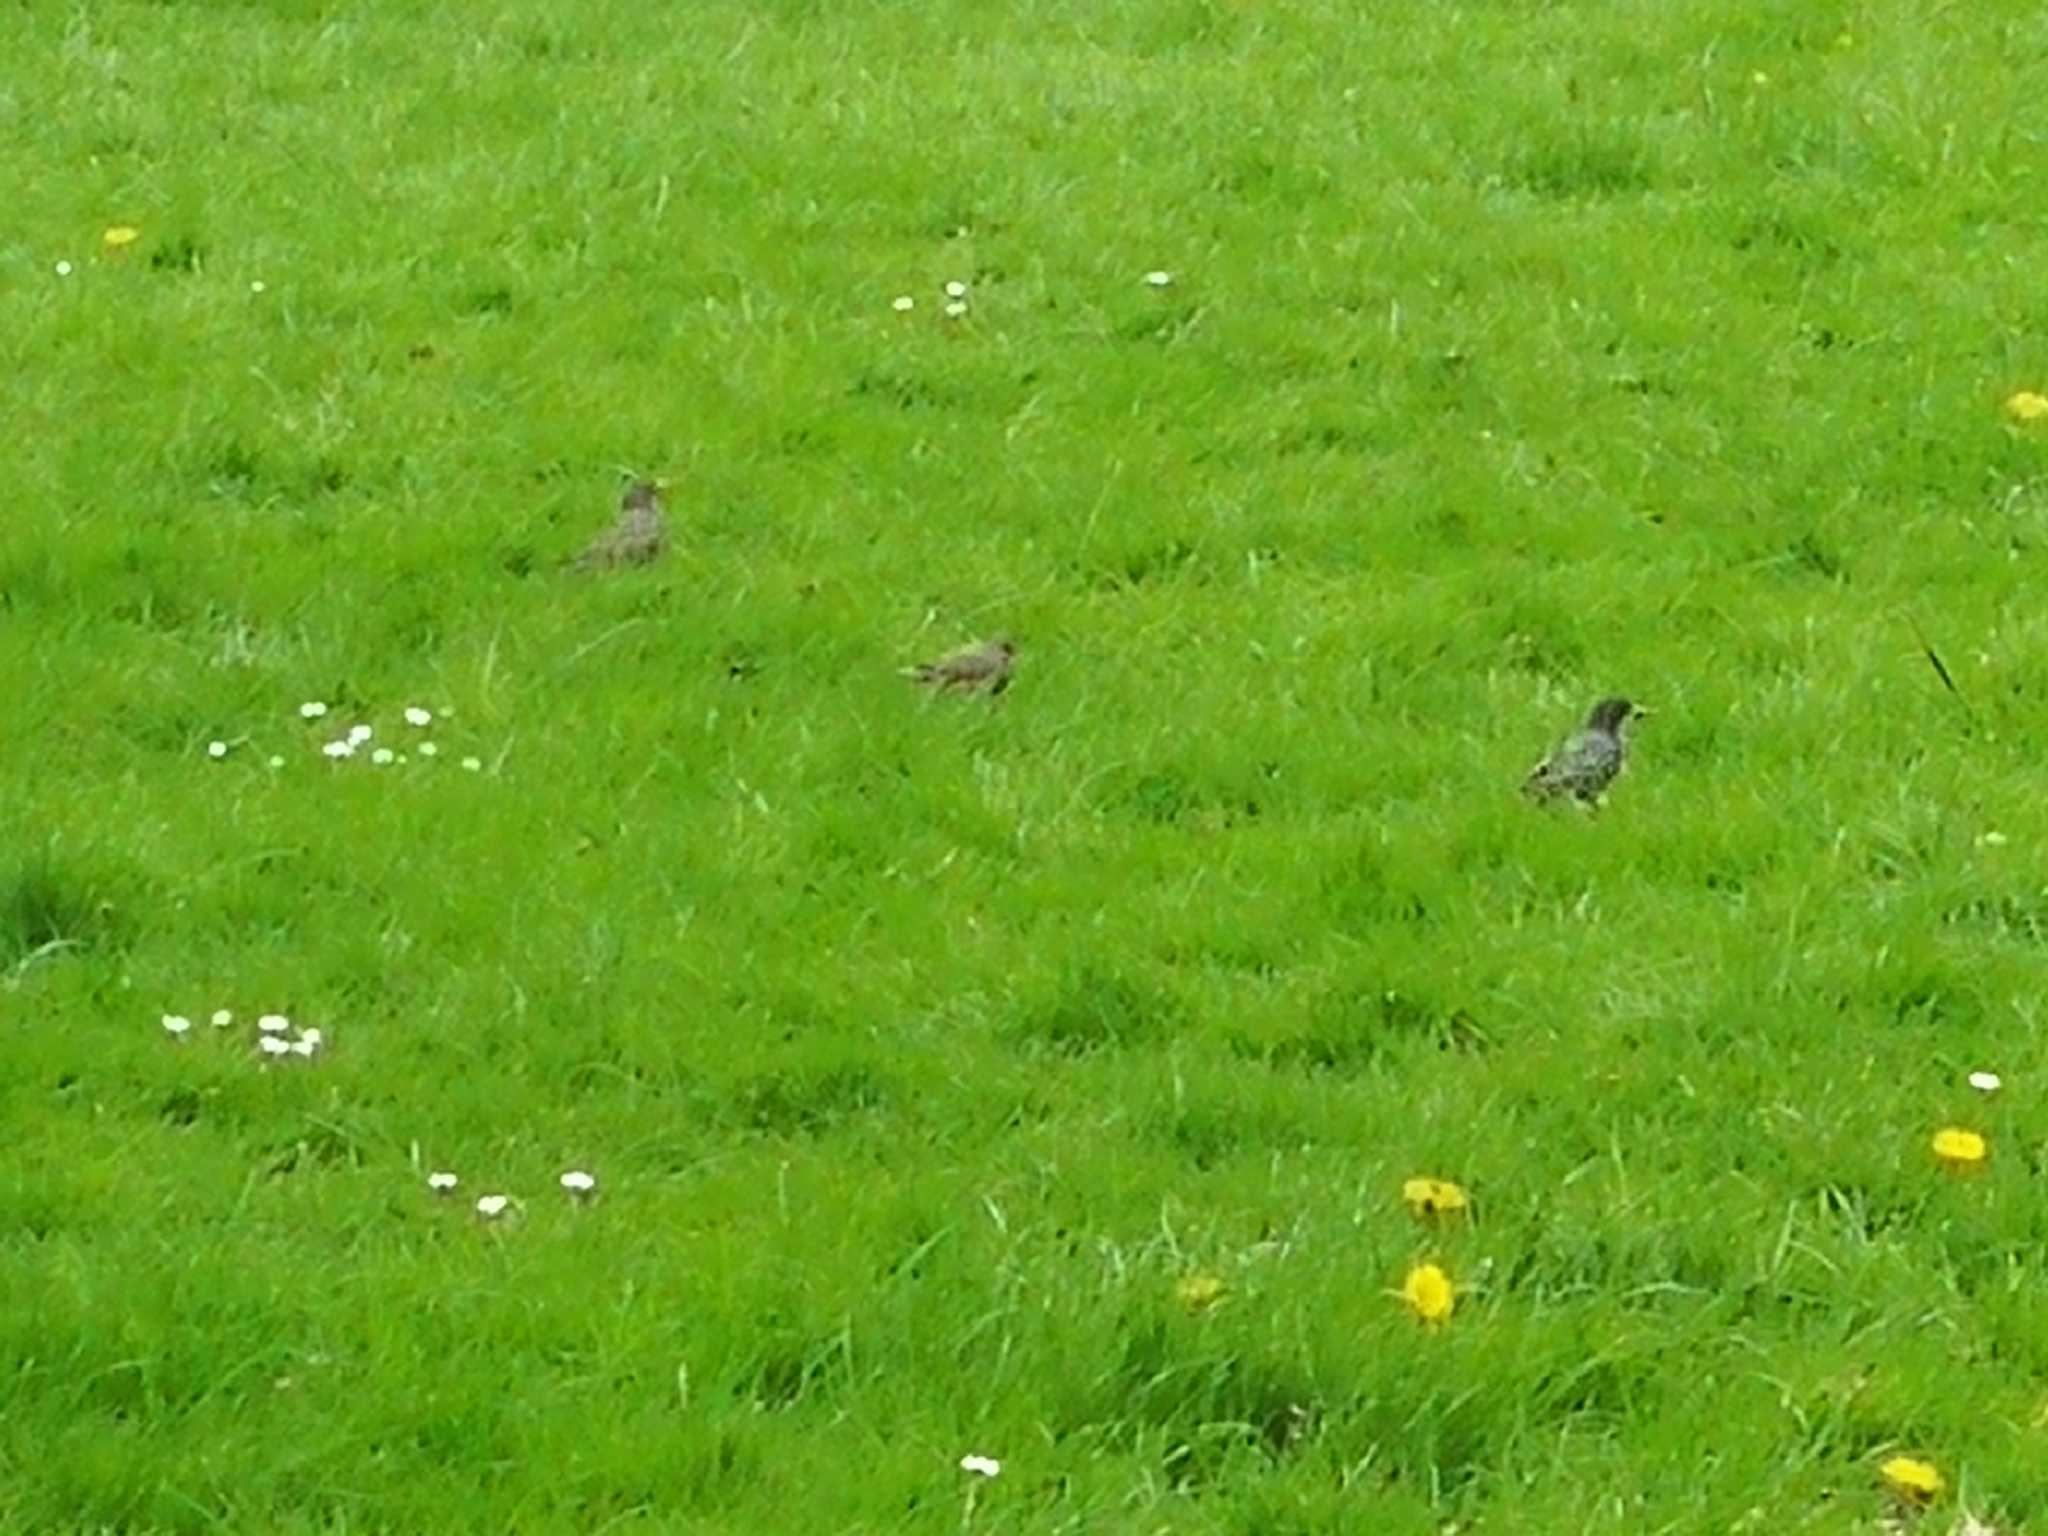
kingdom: Animalia
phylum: Chordata
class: Aves
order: Passeriformes
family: Sturnidae
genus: Sturnus
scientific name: Sturnus vulgaris
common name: Common starling
